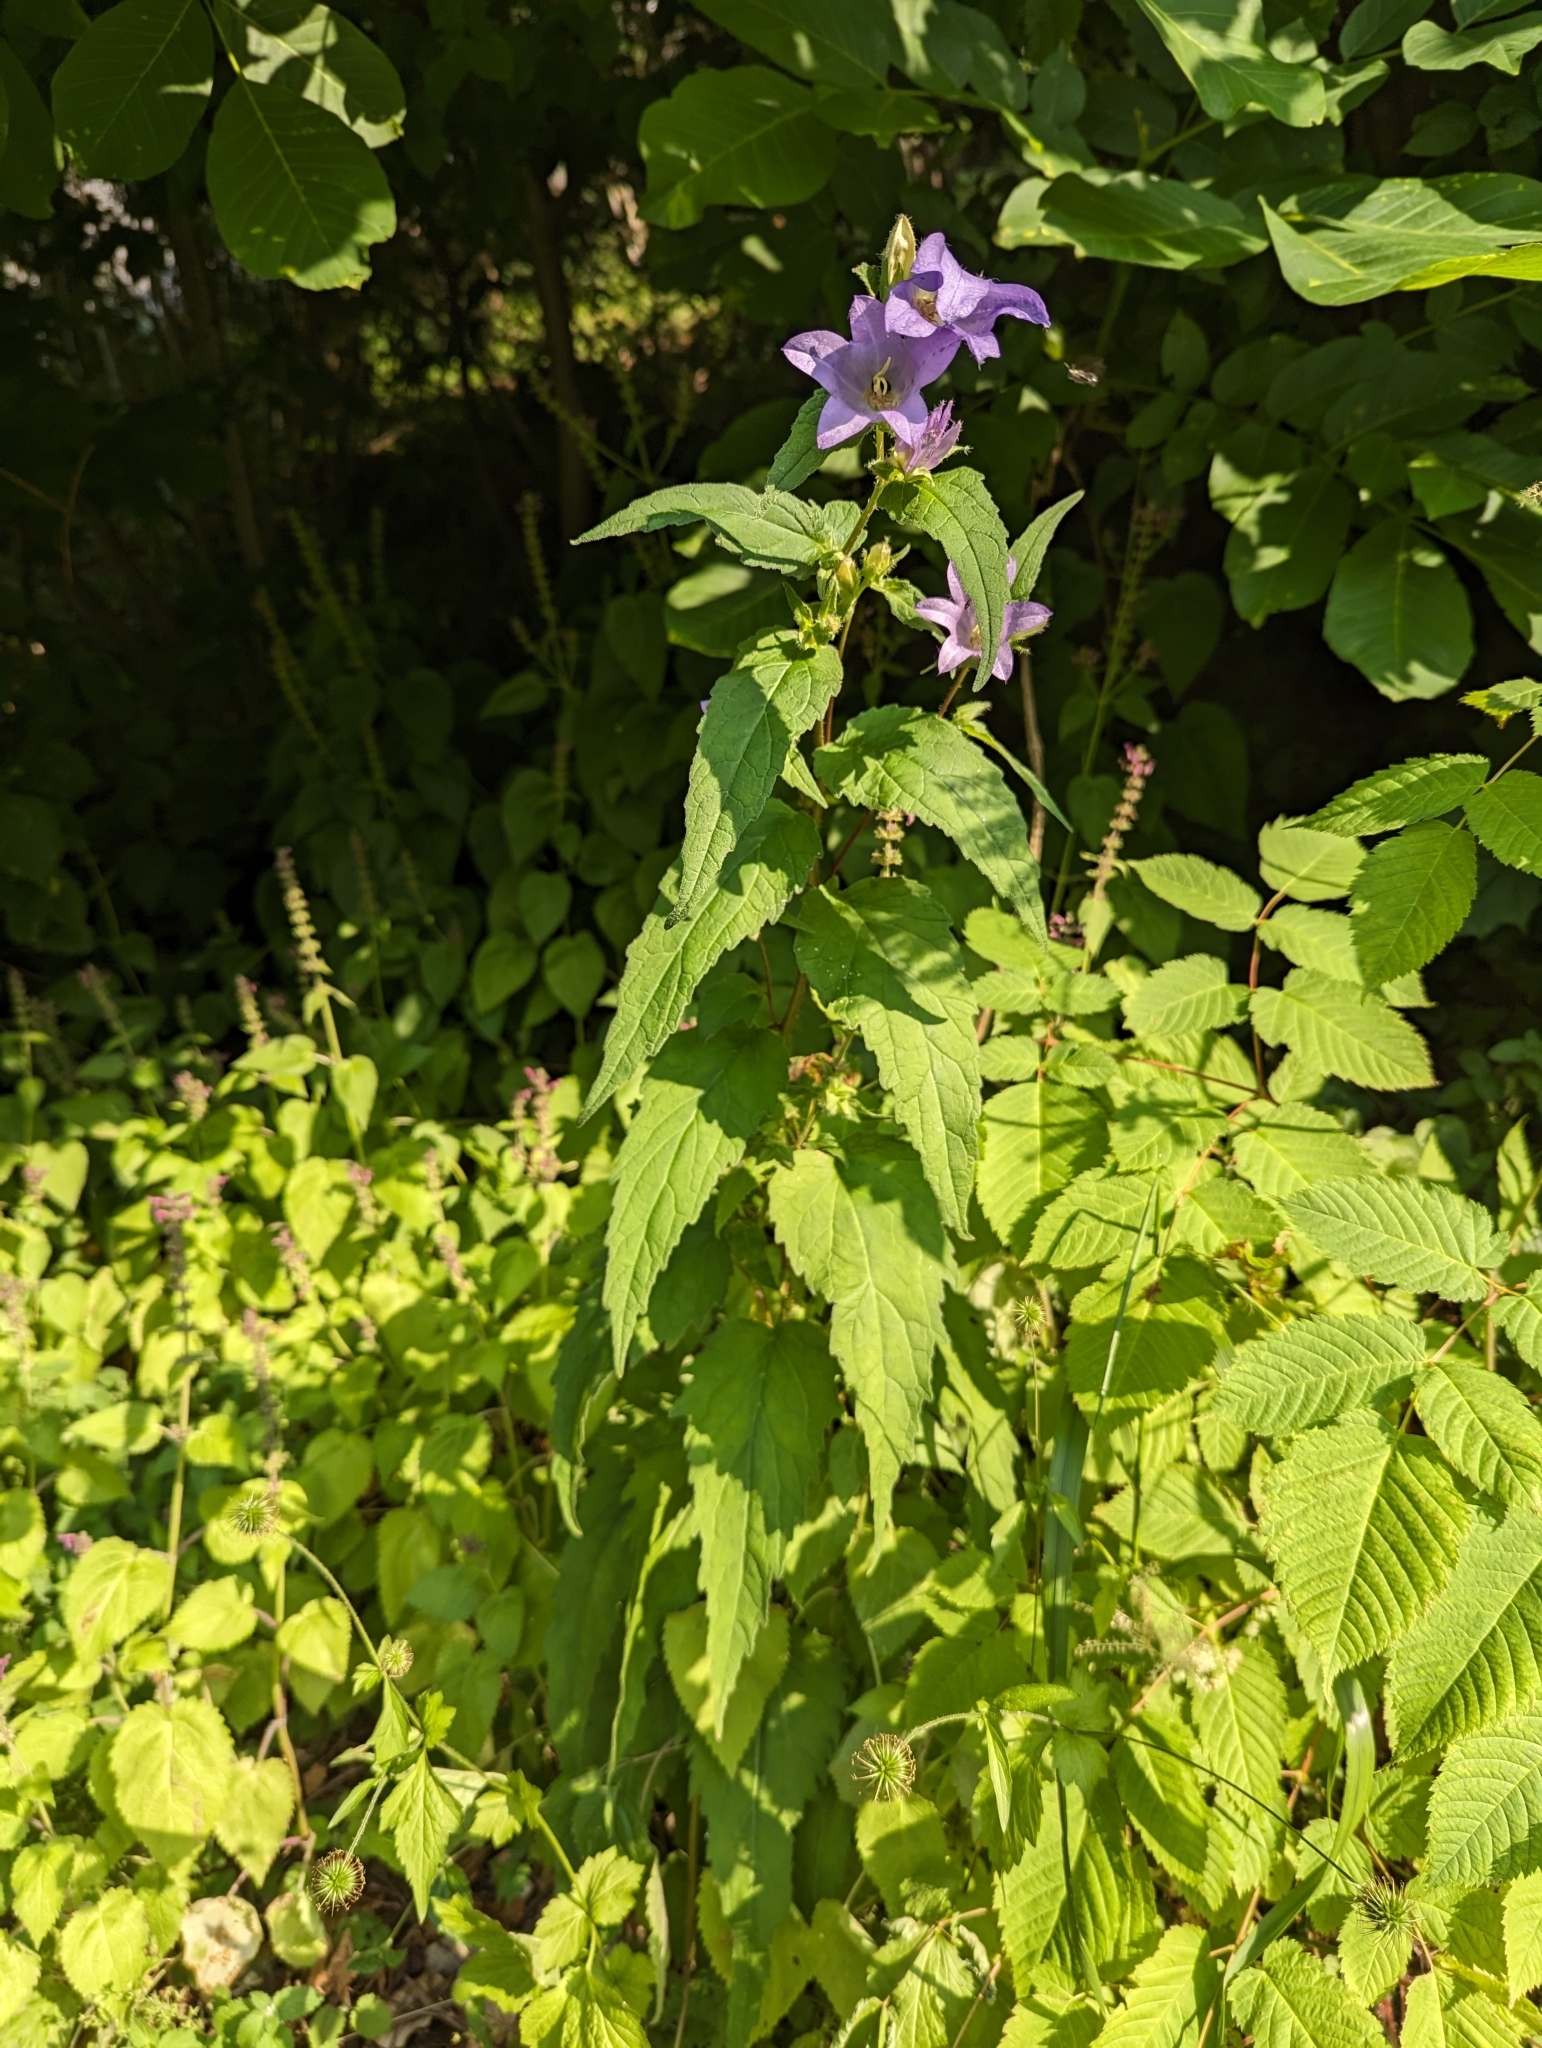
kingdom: Plantae
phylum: Tracheophyta
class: Magnoliopsida
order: Asterales
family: Campanulaceae
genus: Campanula
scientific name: Campanula trachelium
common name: Nettle-leaved bellflower
